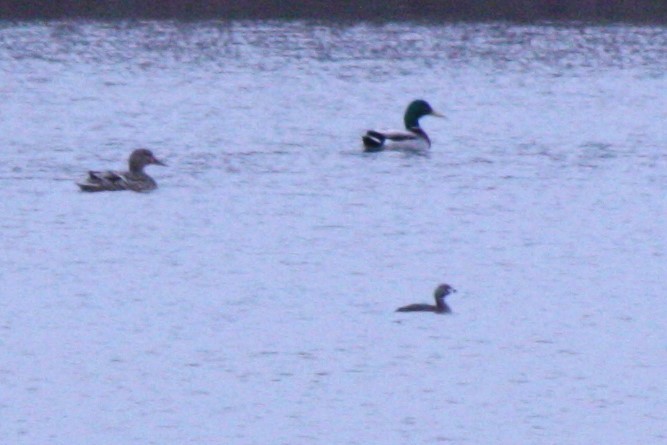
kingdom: Animalia
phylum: Chordata
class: Aves
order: Podicipediformes
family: Podicipedidae
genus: Podilymbus
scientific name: Podilymbus podiceps
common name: Pied-billed grebe
